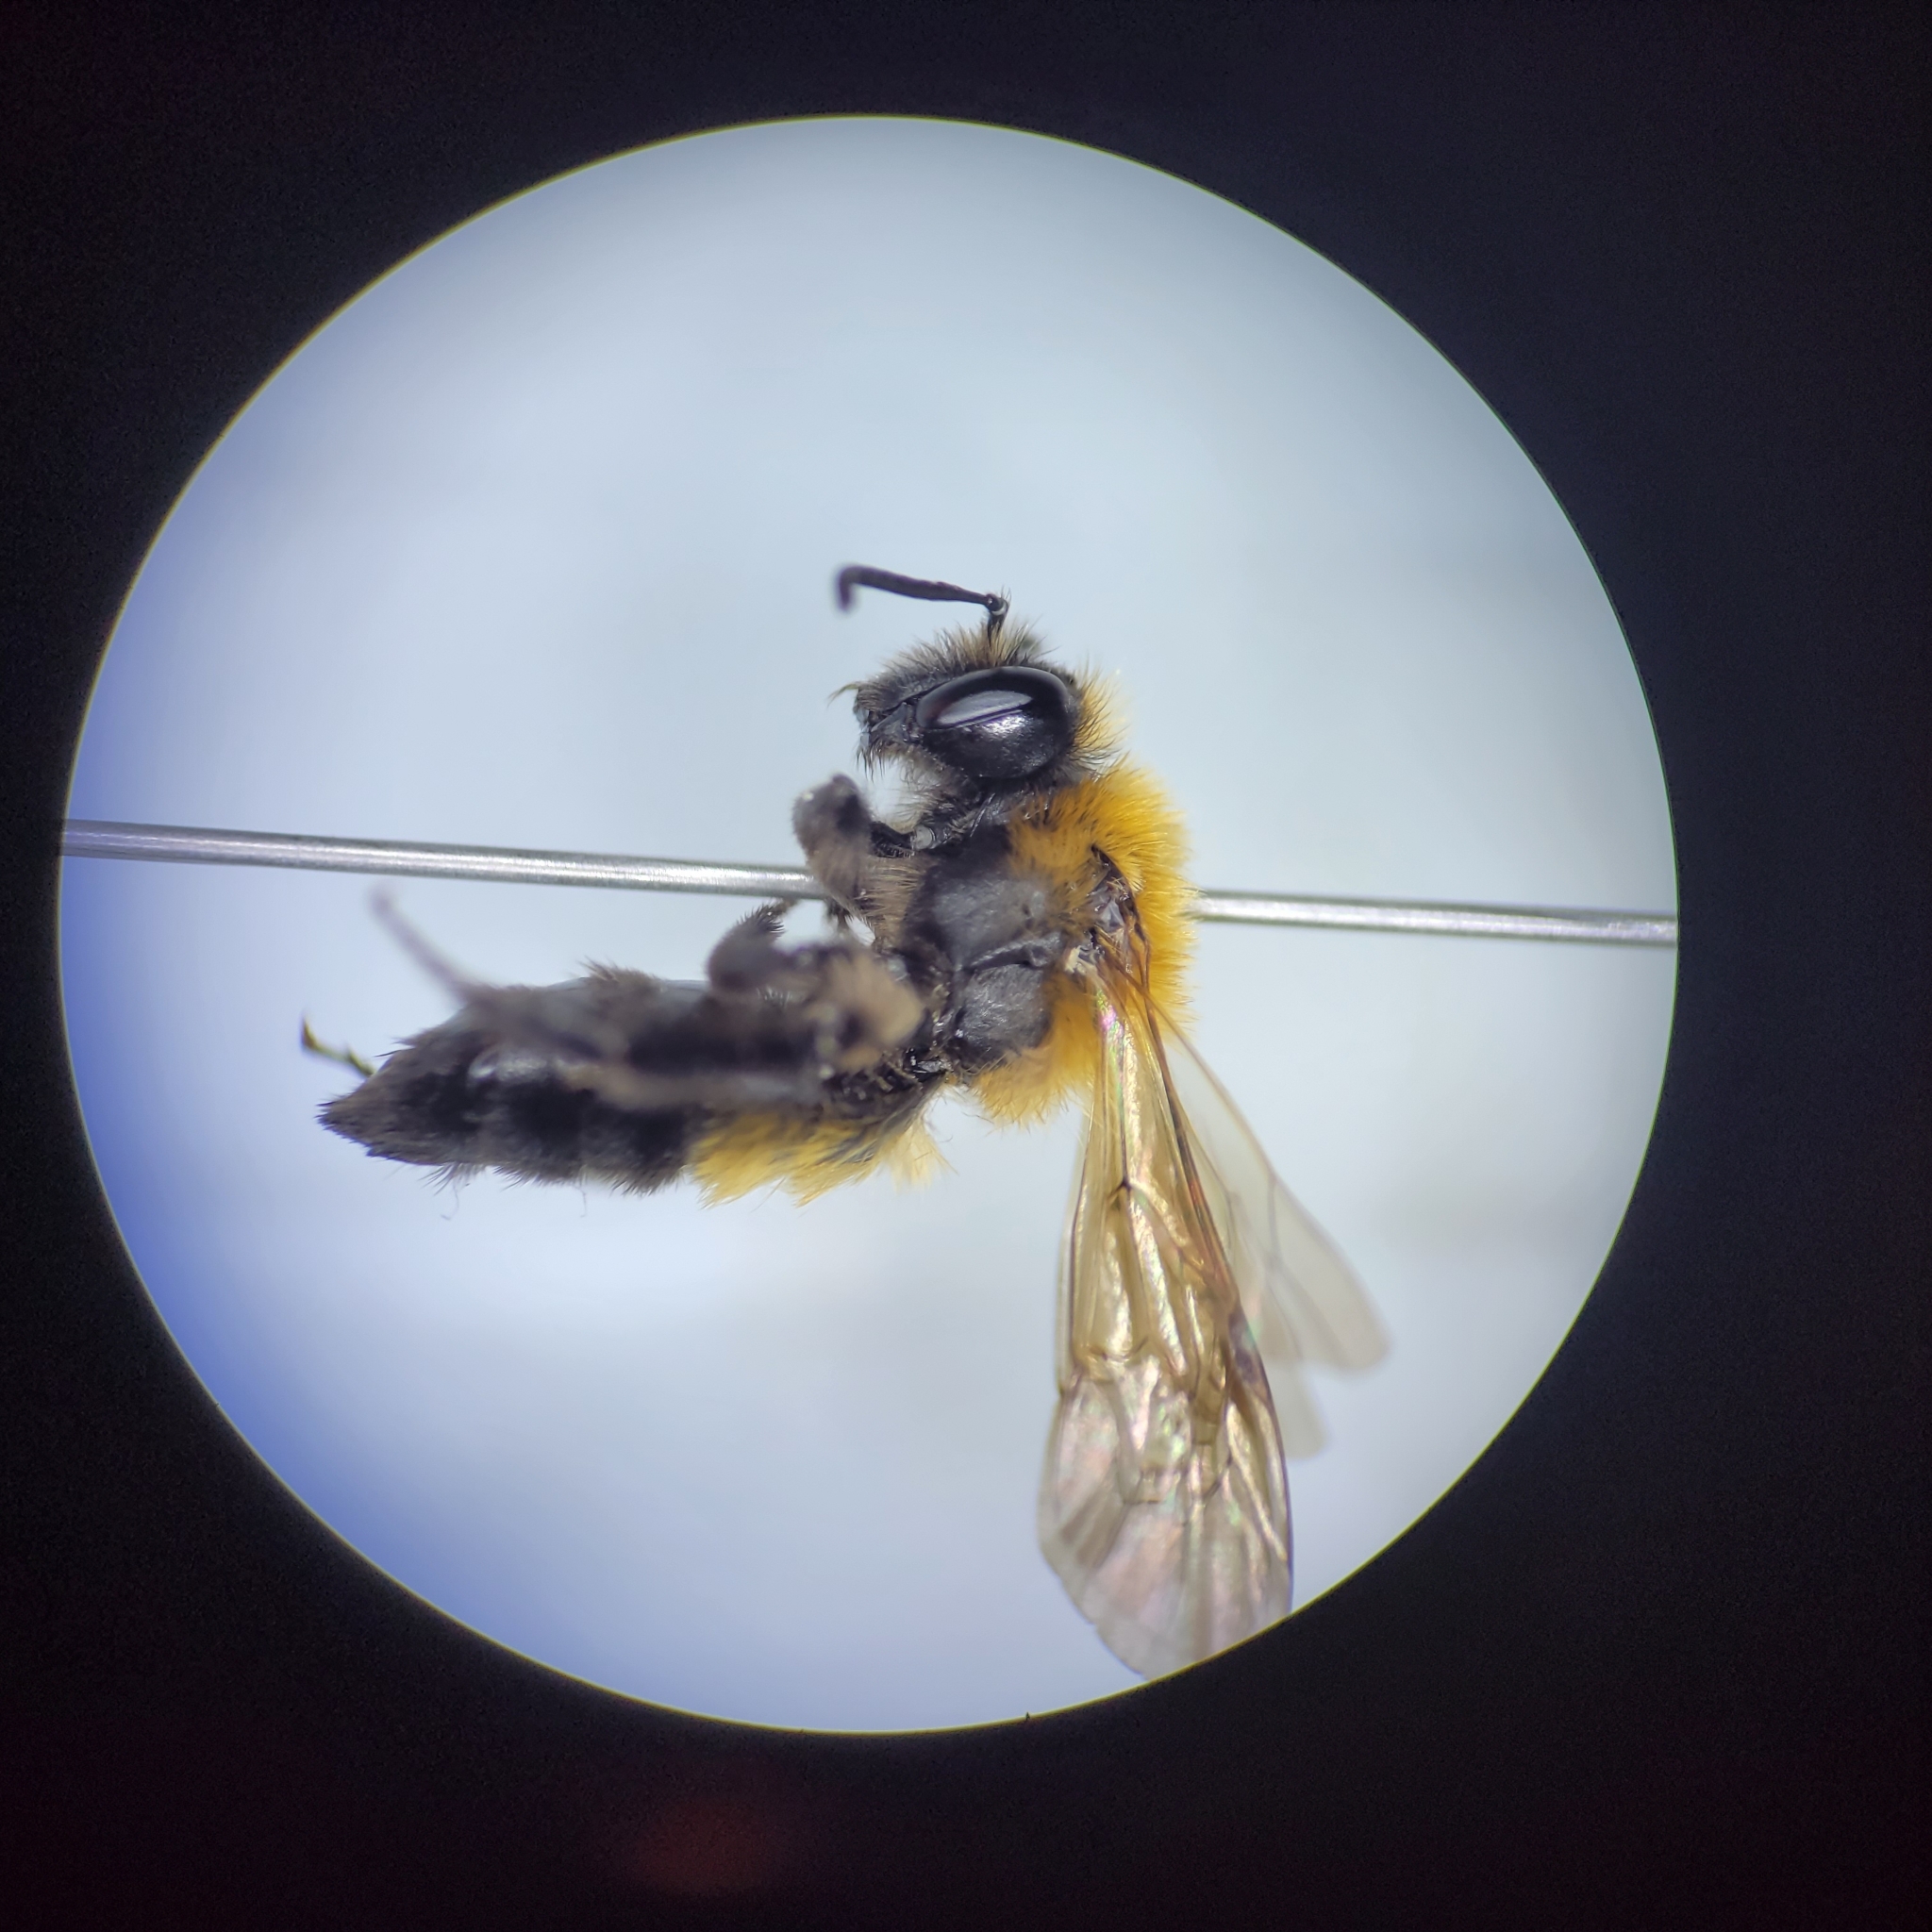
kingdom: Animalia
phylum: Arthropoda
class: Insecta
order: Hymenoptera
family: Andrenidae
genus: Andrena
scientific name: Andrena milwaukeensis
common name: Milwaukee mining bee
